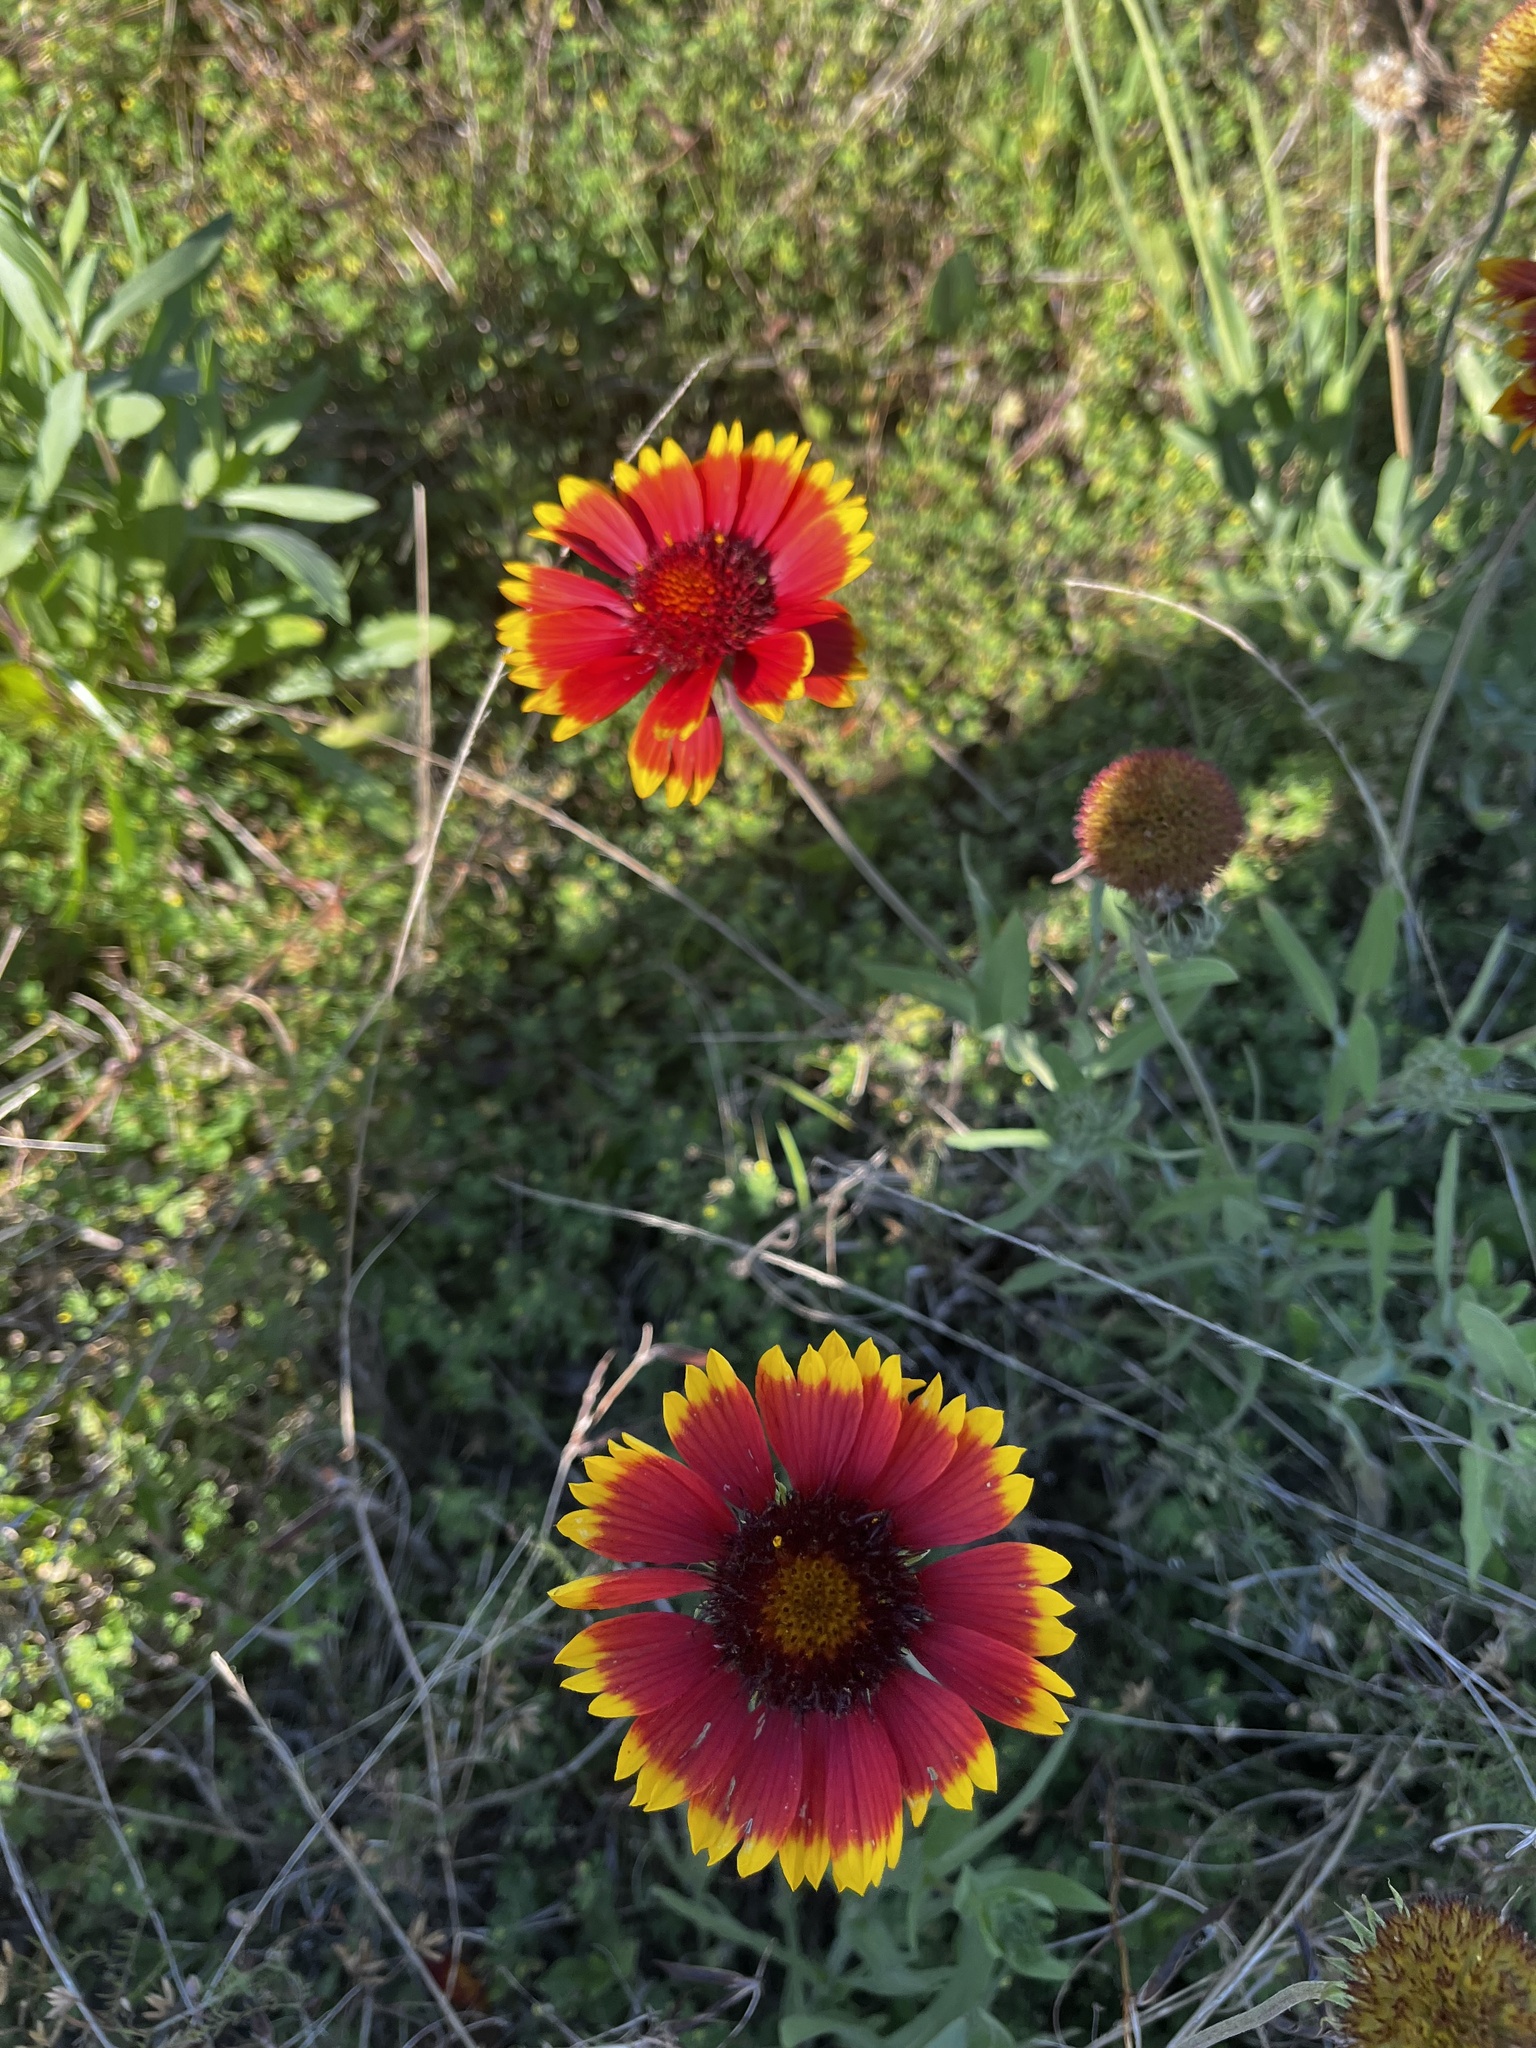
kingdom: Plantae
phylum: Tracheophyta
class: Magnoliopsida
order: Asterales
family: Asteraceae
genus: Gaillardia
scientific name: Gaillardia pulchella
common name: Firewheel
